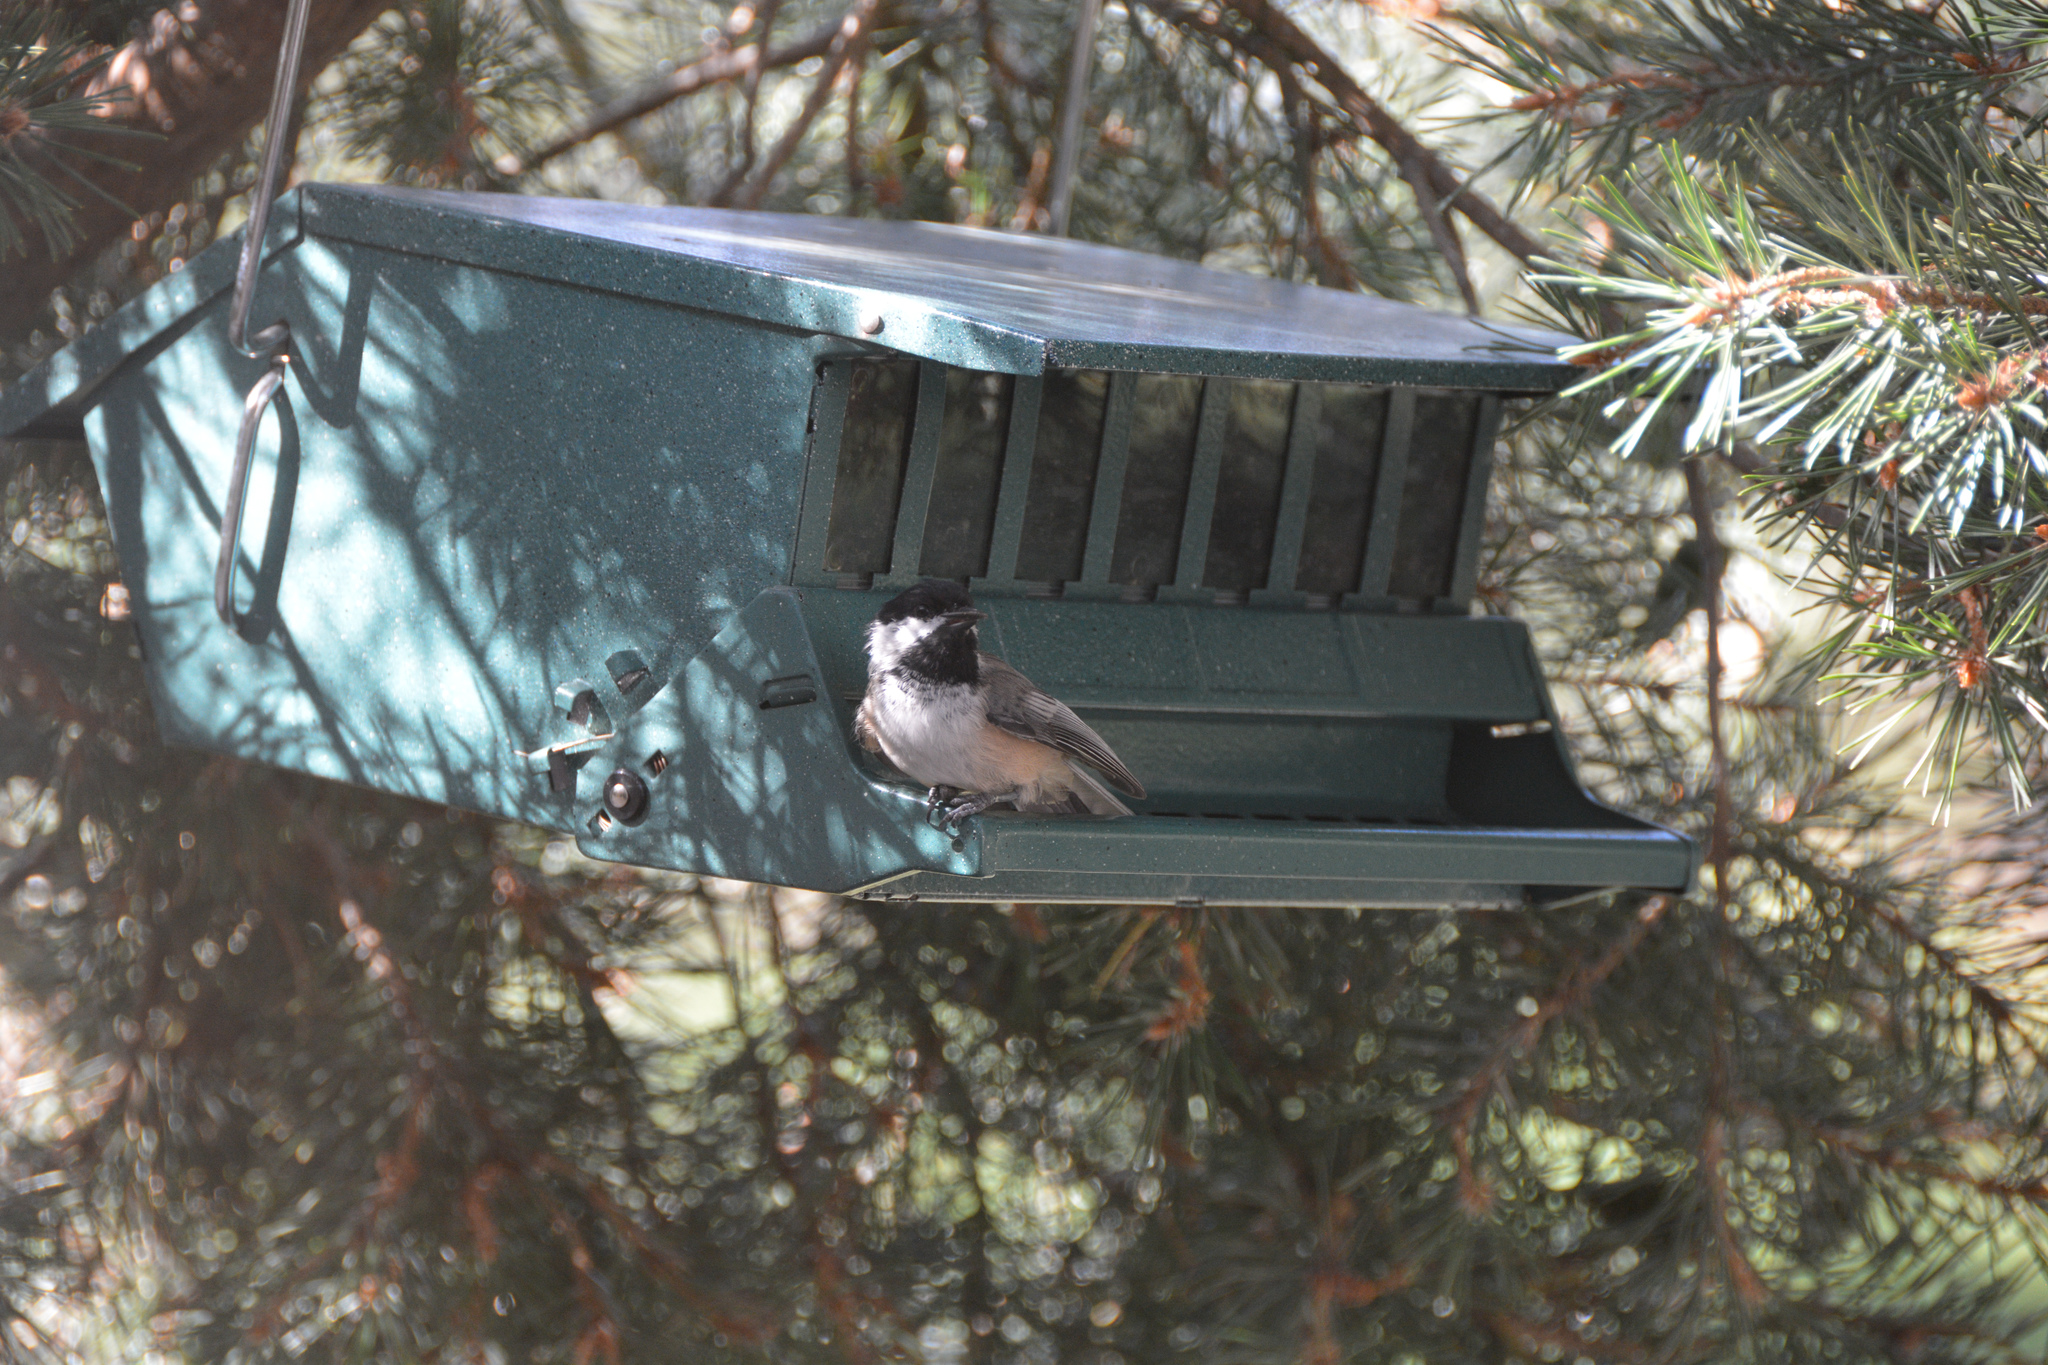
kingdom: Animalia
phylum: Chordata
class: Aves
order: Passeriformes
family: Paridae
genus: Poecile
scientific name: Poecile atricapillus
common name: Black-capped chickadee
